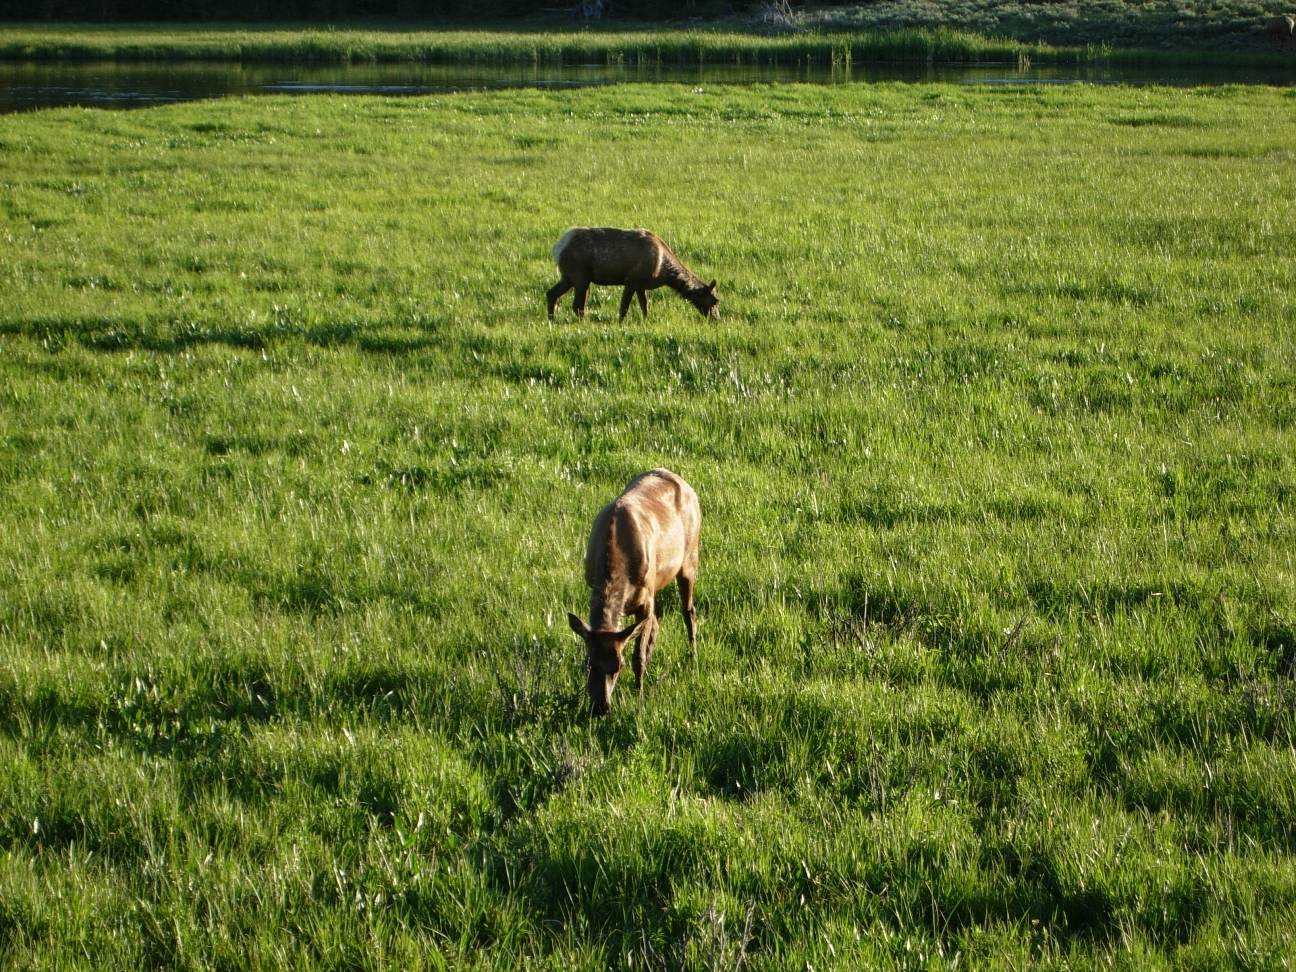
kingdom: Animalia
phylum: Chordata
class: Mammalia
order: Artiodactyla
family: Cervidae
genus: Cervus
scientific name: Cervus elaphus
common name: Red deer
